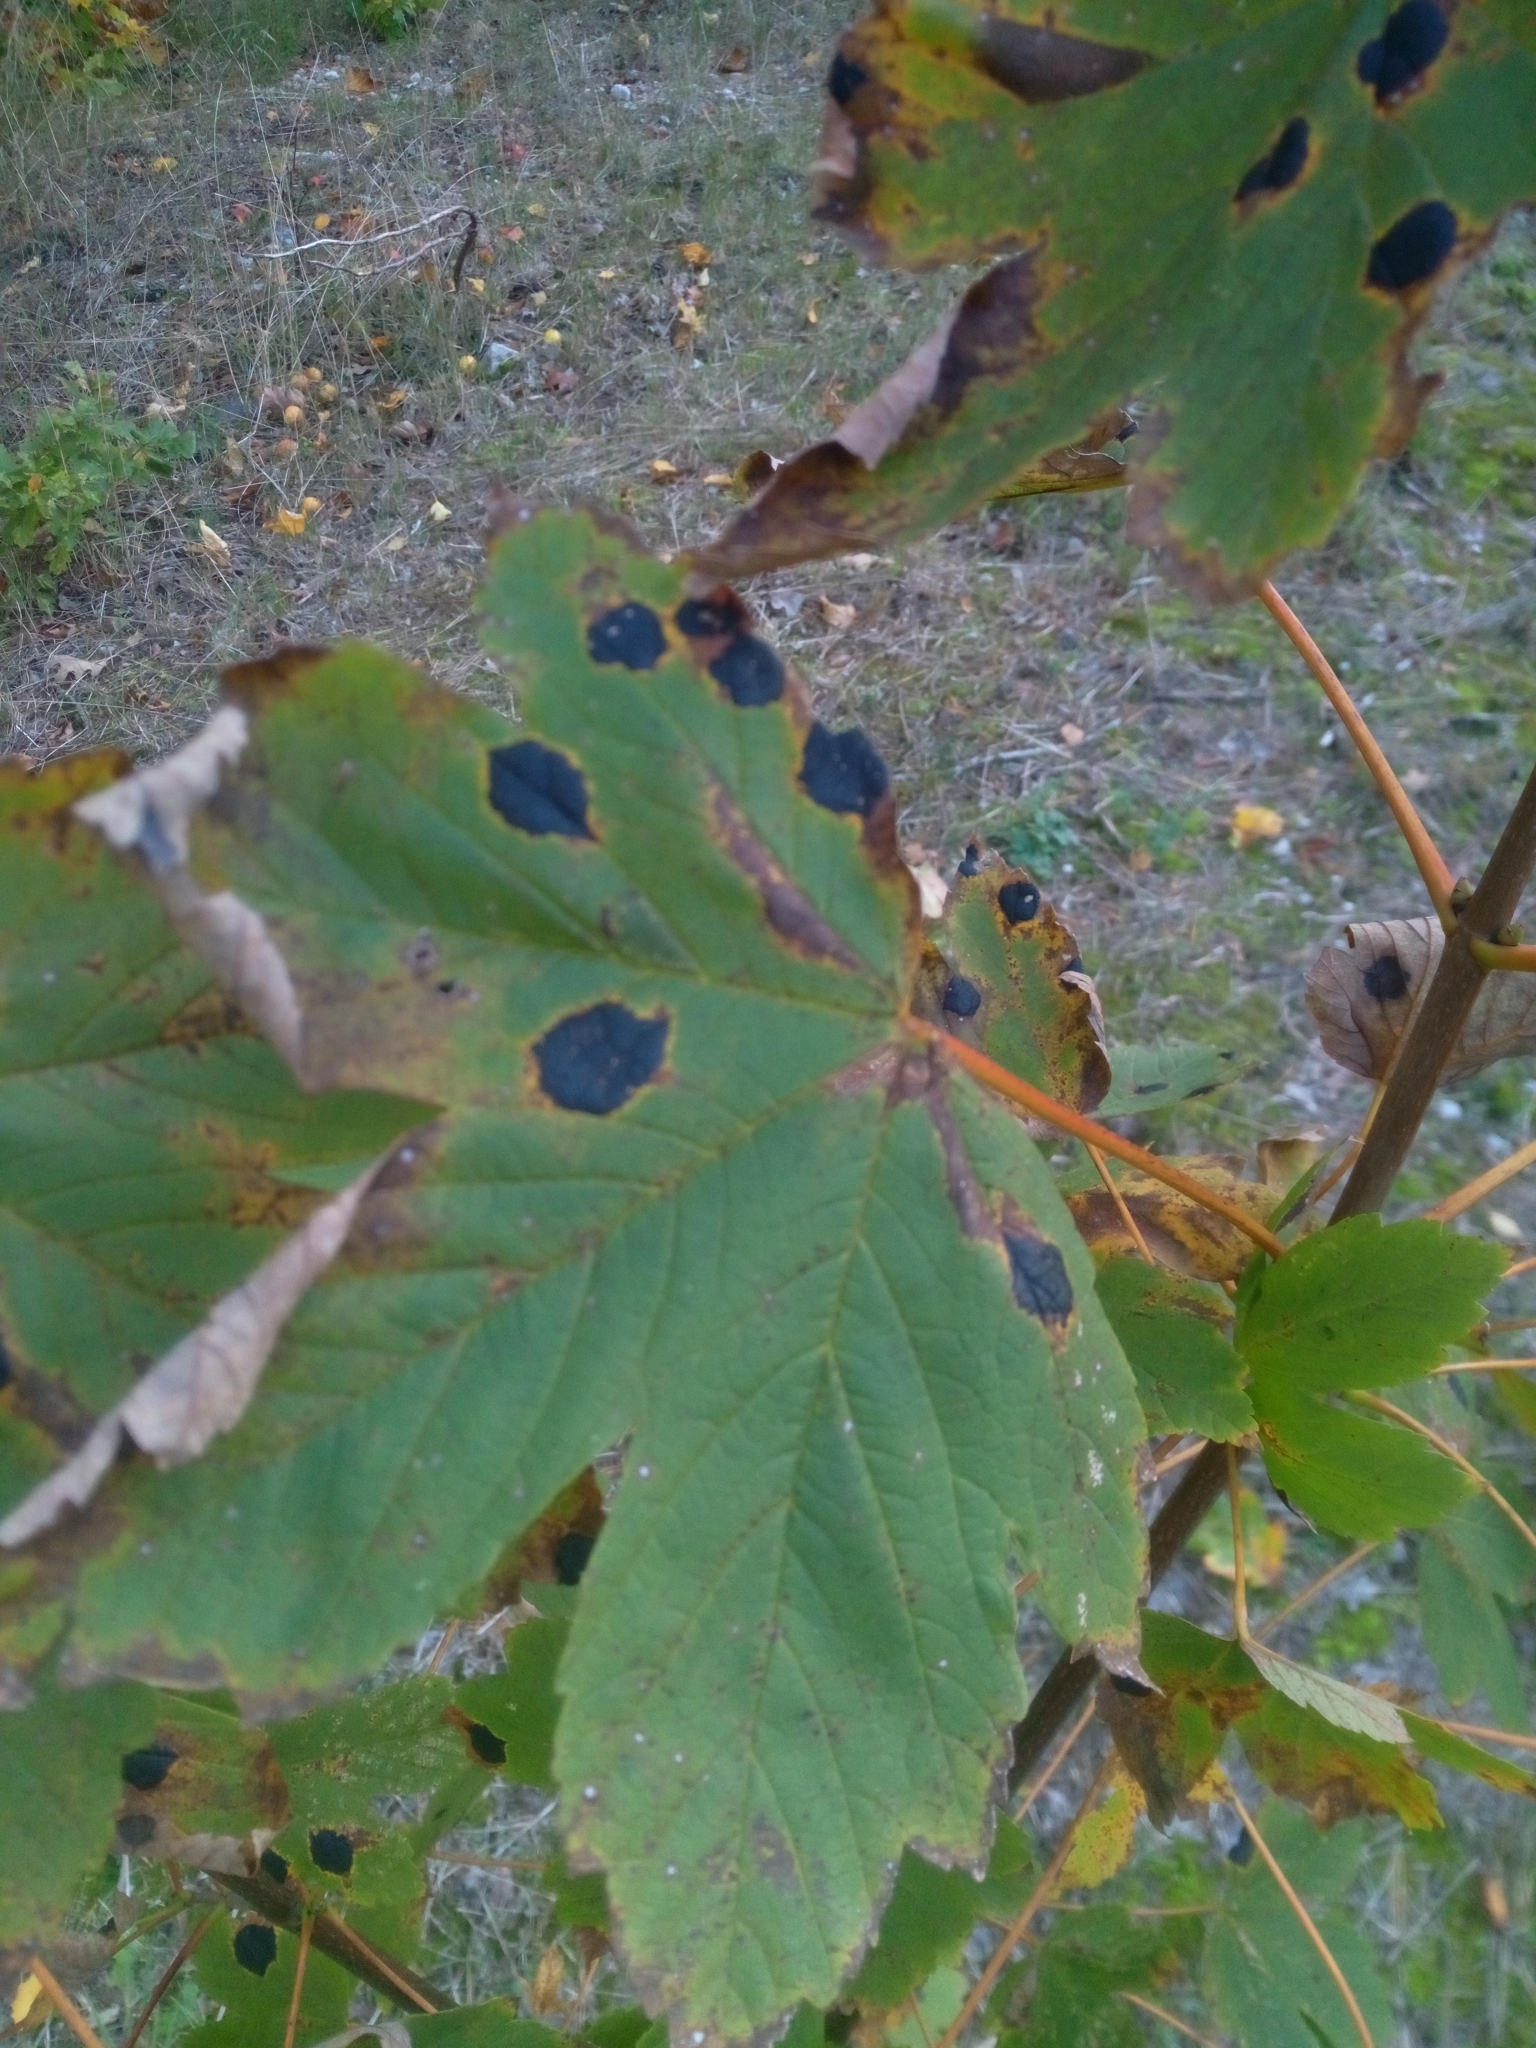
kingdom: Fungi
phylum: Ascomycota
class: Leotiomycetes
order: Rhytismatales
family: Rhytismataceae
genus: Rhytisma
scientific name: Rhytisma acerinum
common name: European tar spot
